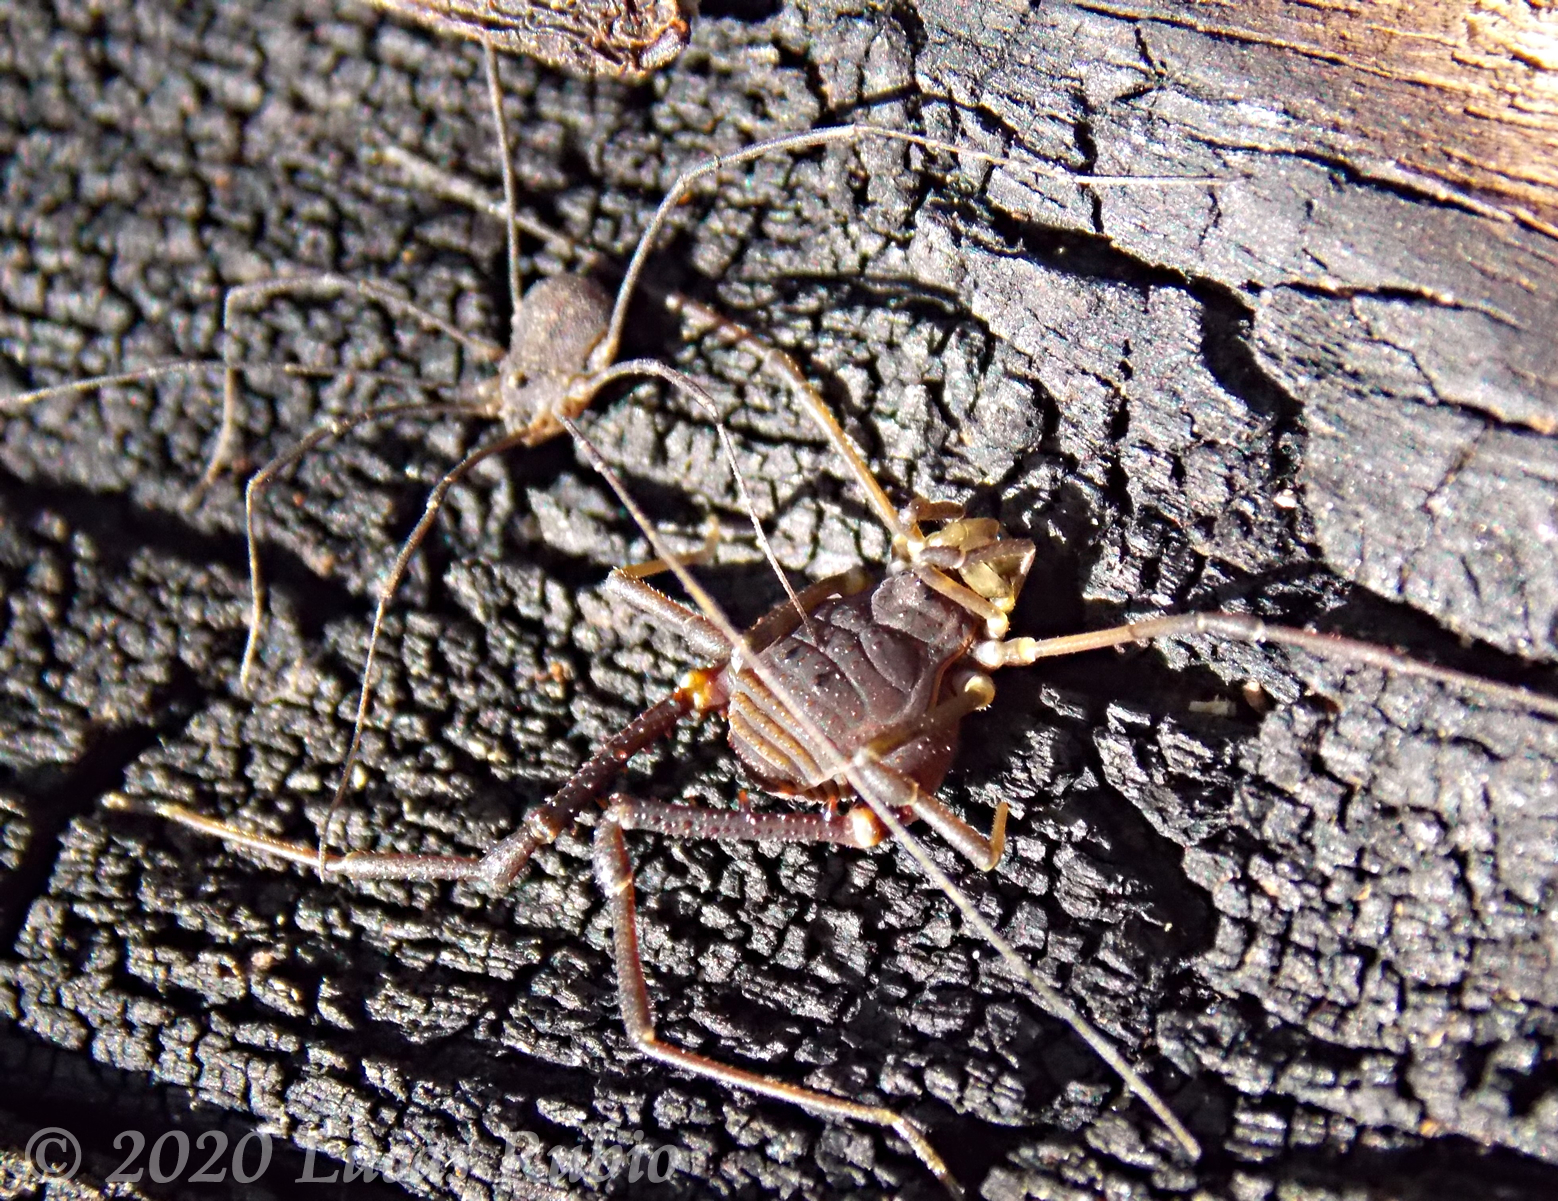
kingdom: Animalia
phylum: Arthropoda
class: Arachnida
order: Opiliones
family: Sclerosomatidae
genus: Holmbergiana
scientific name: Holmbergiana weyenberghii
